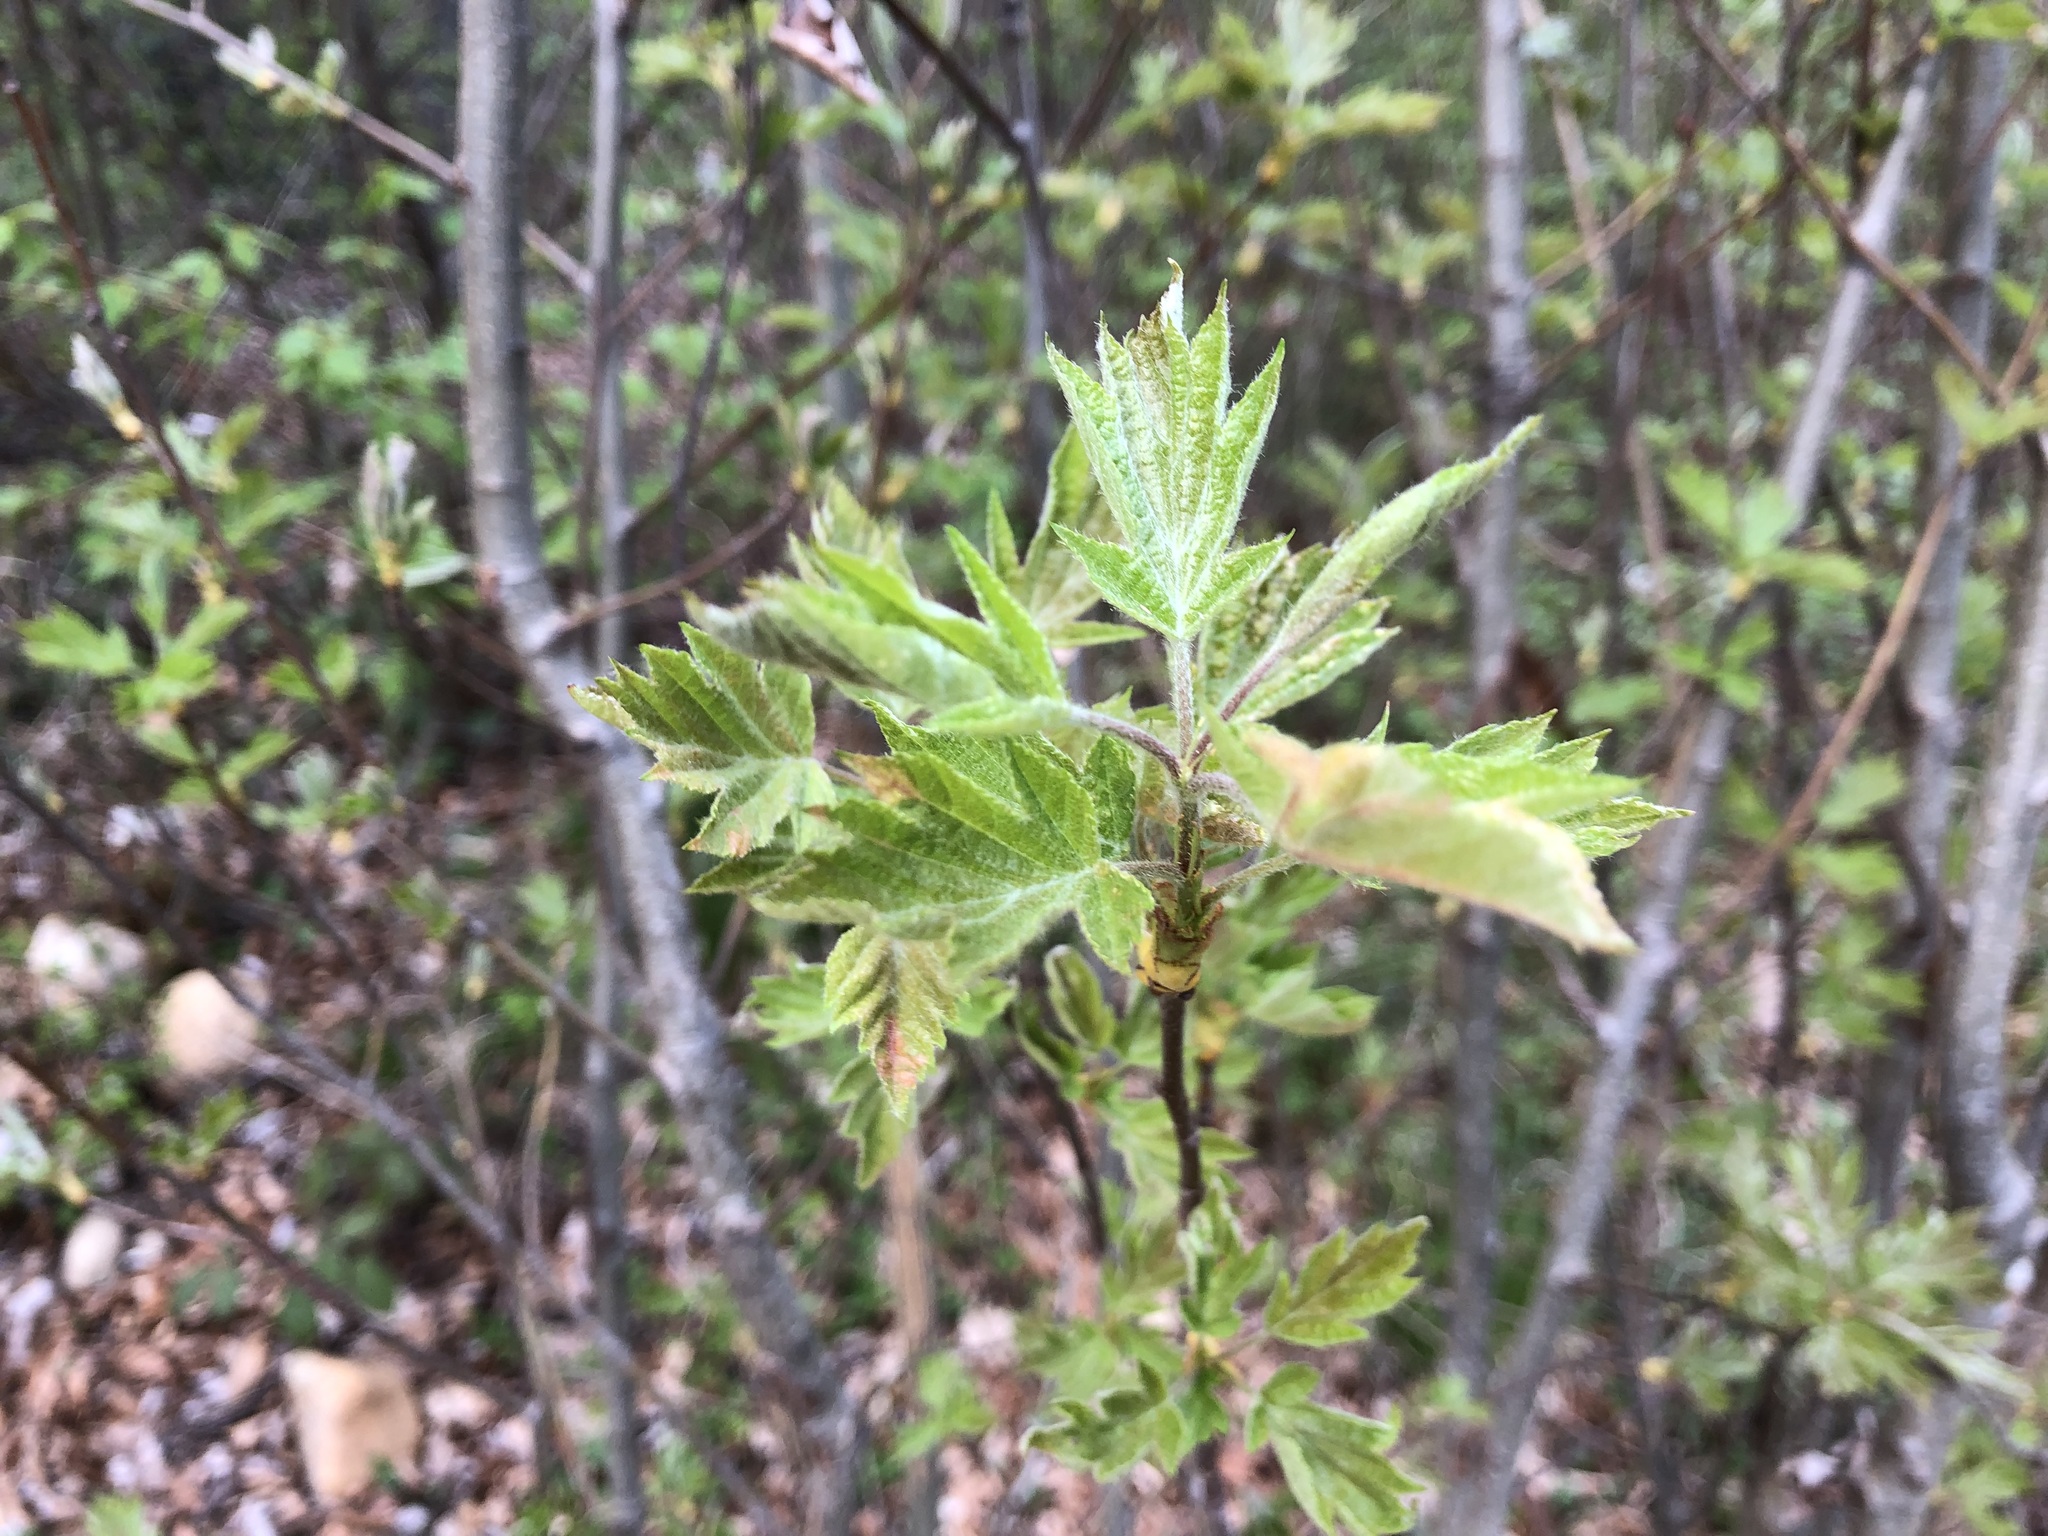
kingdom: Plantae
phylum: Tracheophyta
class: Magnoliopsida
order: Rosales
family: Rosaceae
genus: Torminalis
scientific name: Torminalis glaberrima
